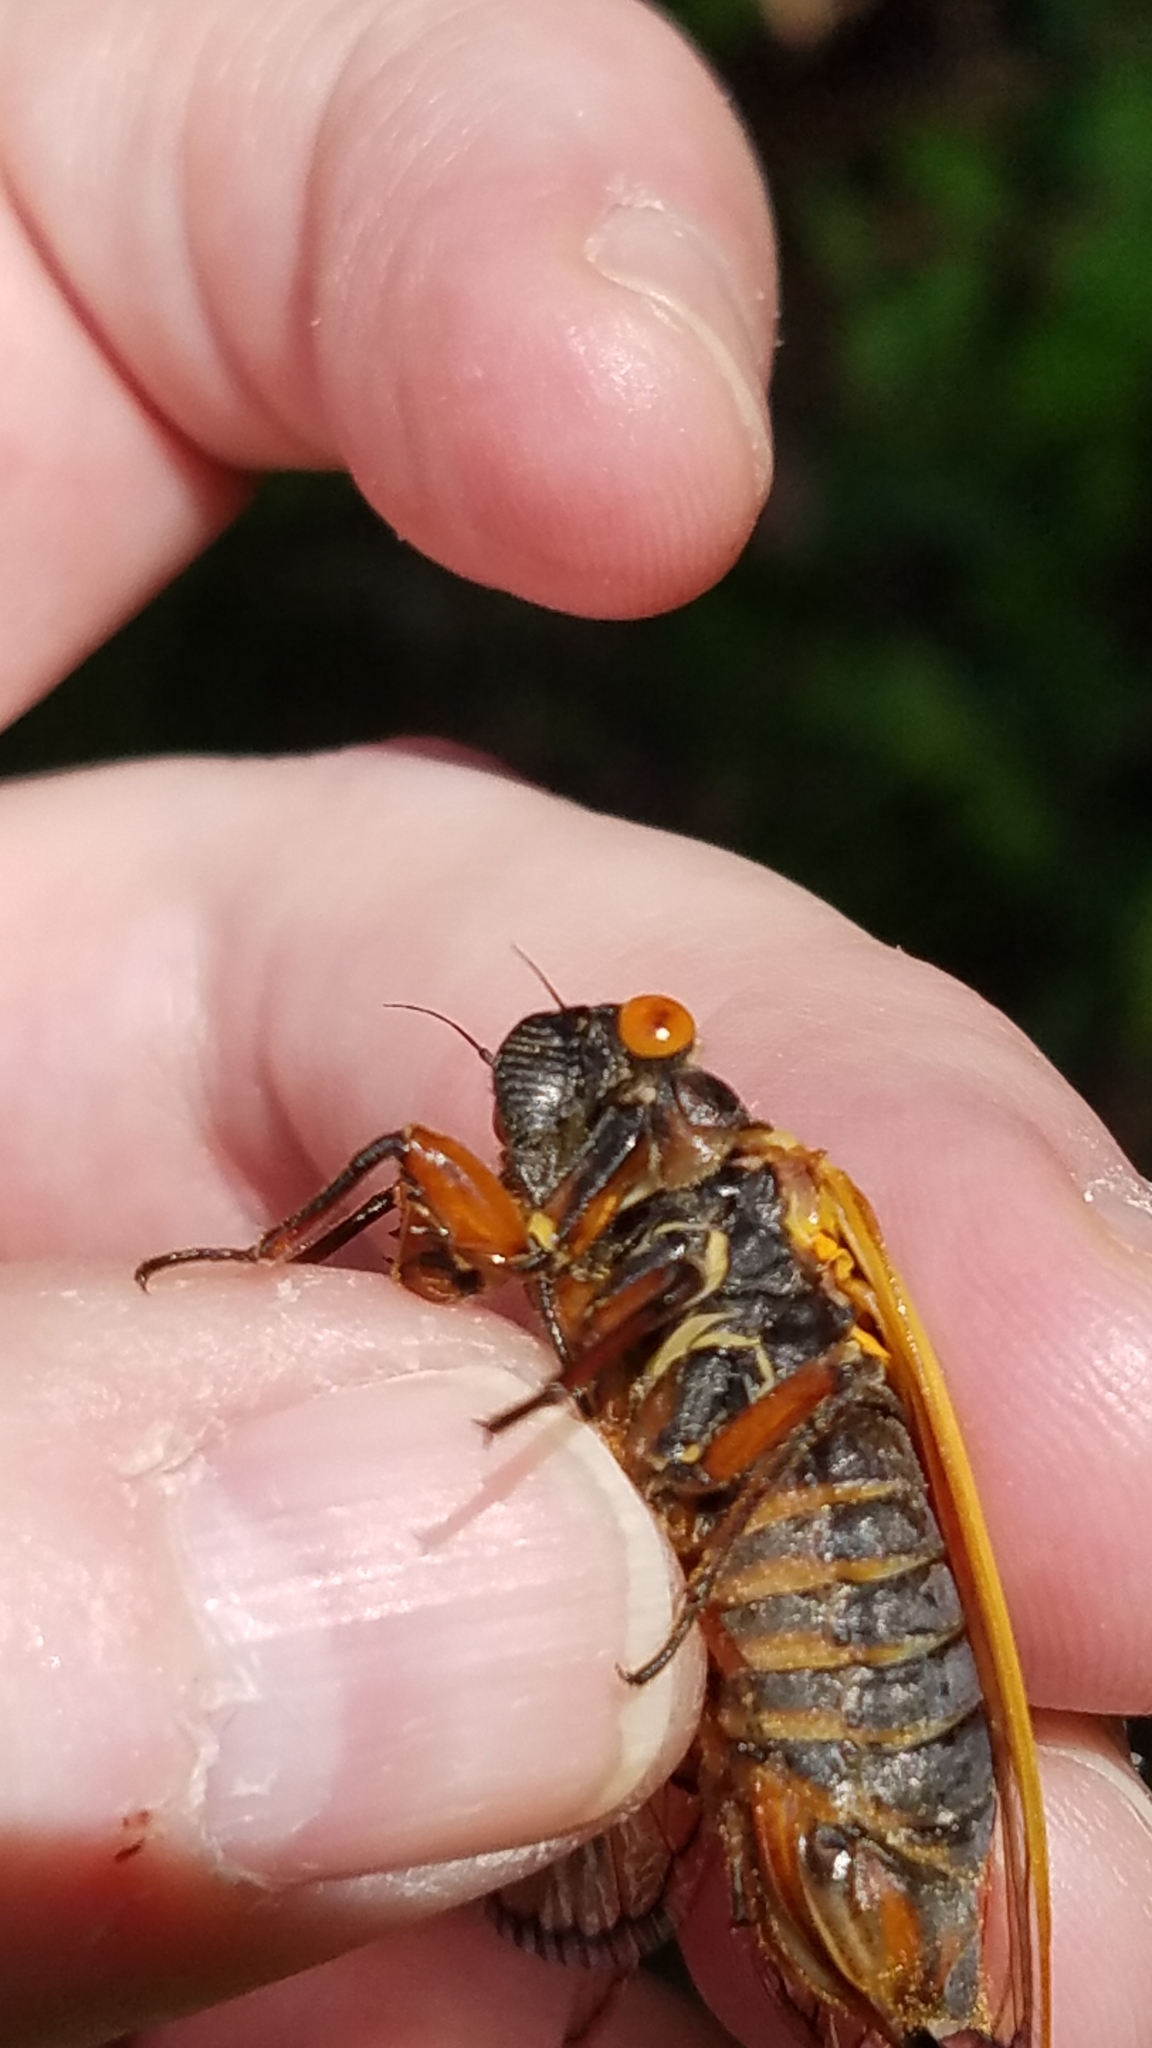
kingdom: Animalia
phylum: Arthropoda
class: Insecta
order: Hemiptera
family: Cicadidae
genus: Magicicada
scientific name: Magicicada septendecim
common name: Periodical cicada
